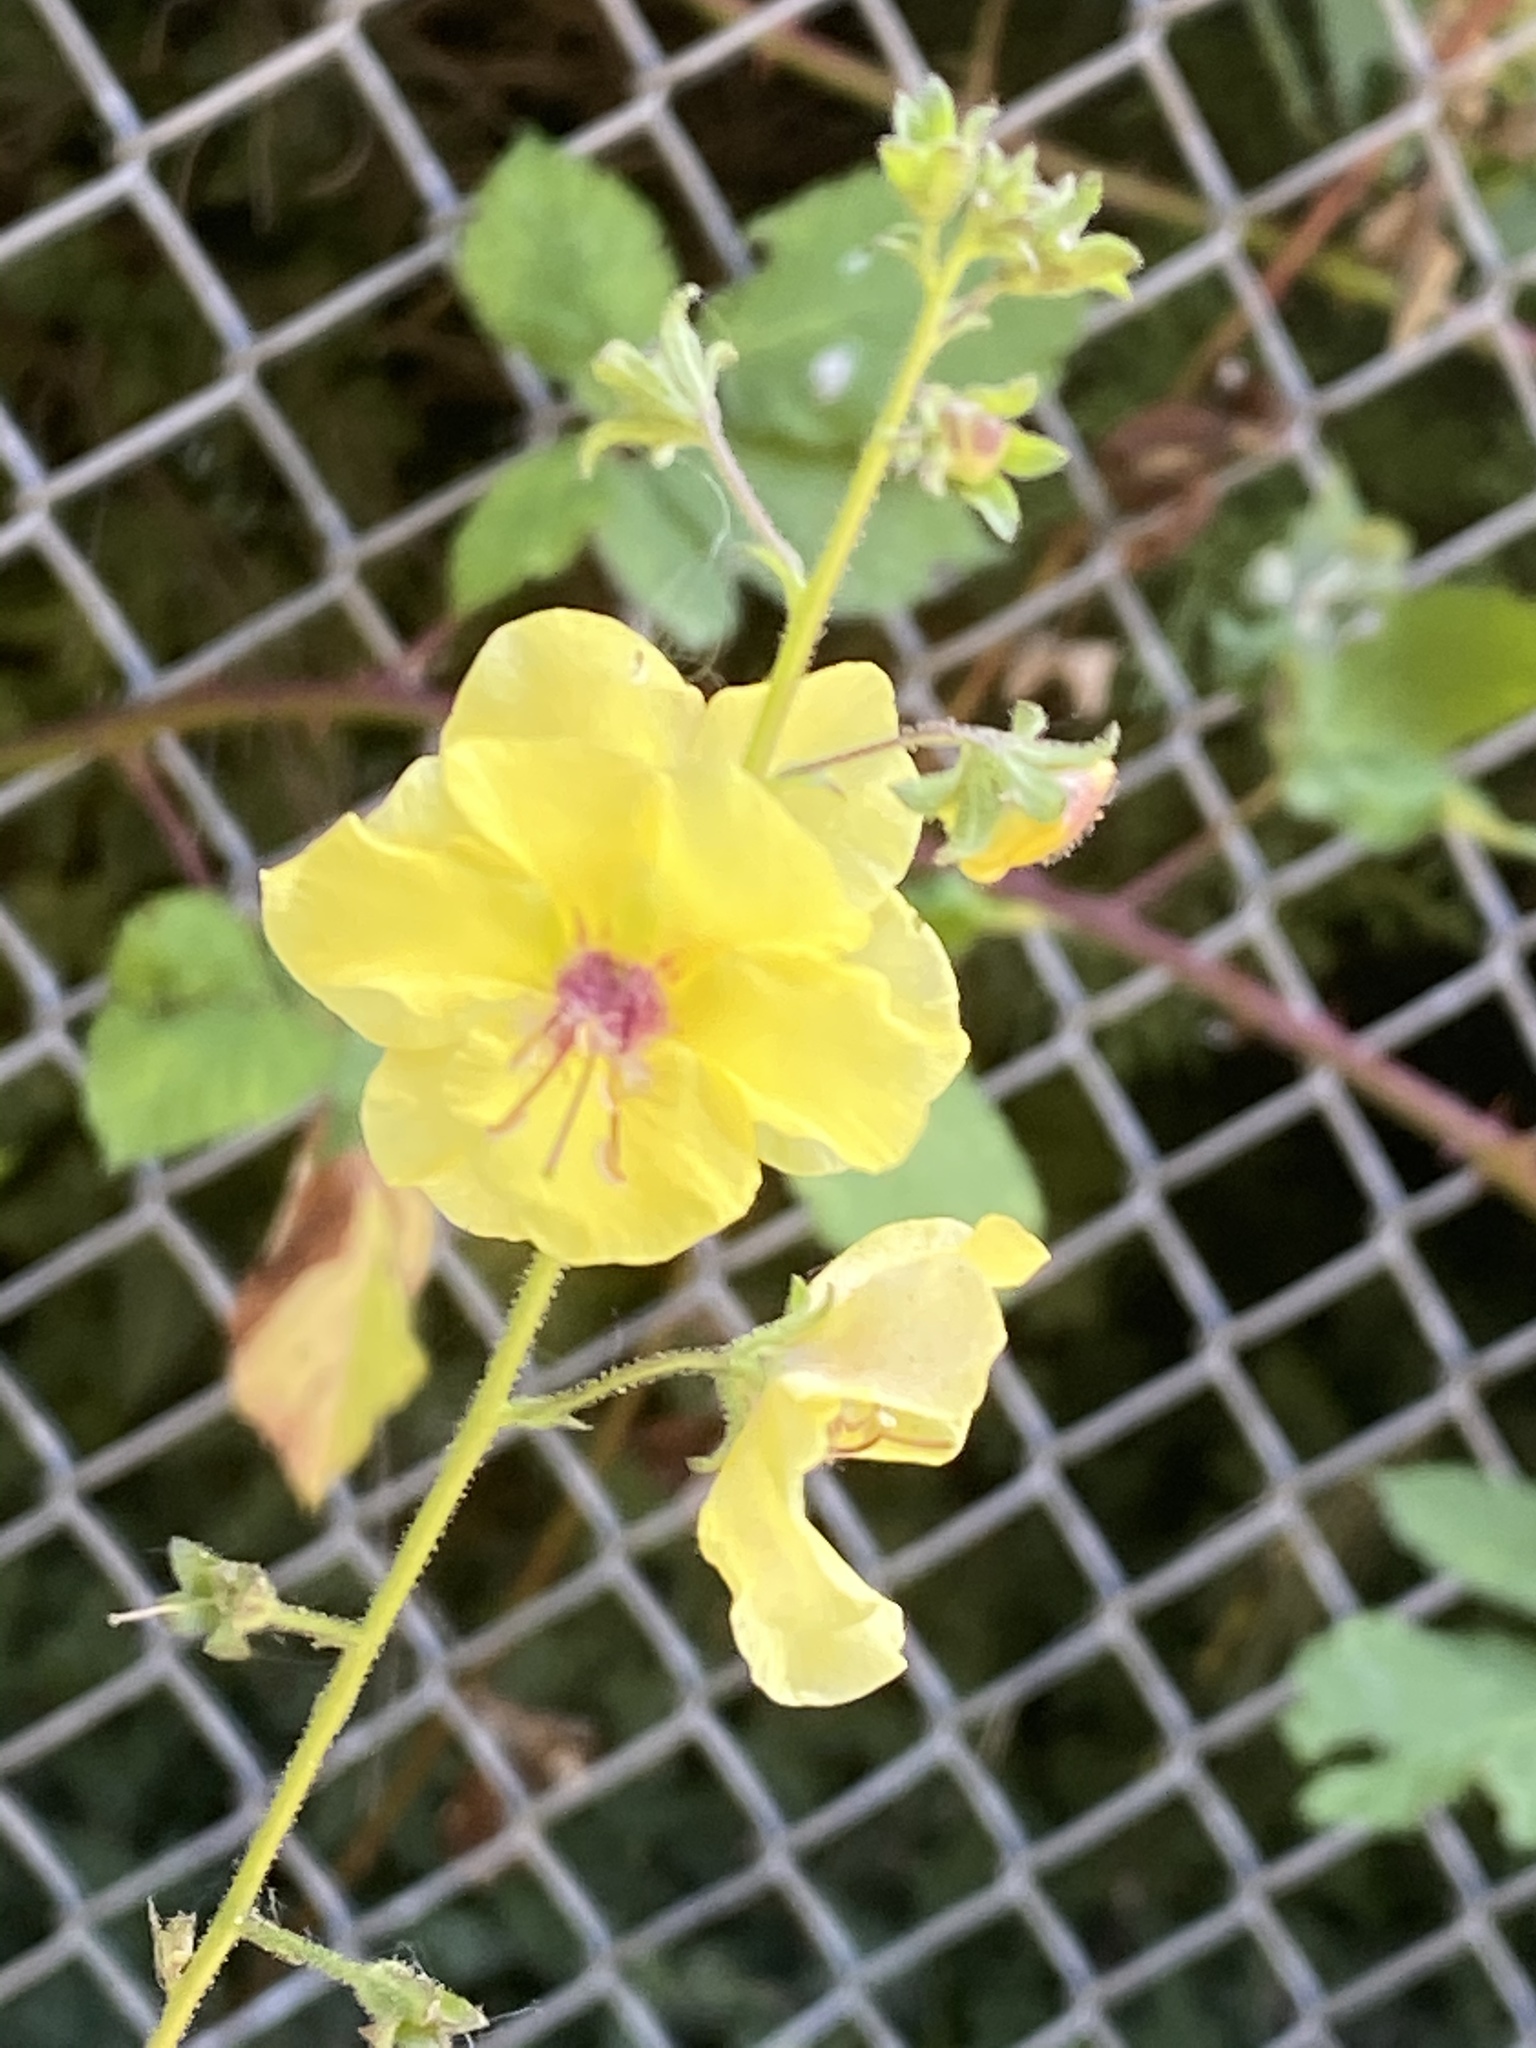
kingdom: Plantae
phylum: Tracheophyta
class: Magnoliopsida
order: Lamiales
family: Scrophulariaceae
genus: Verbascum
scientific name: Verbascum blattaria
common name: Moth mullein
